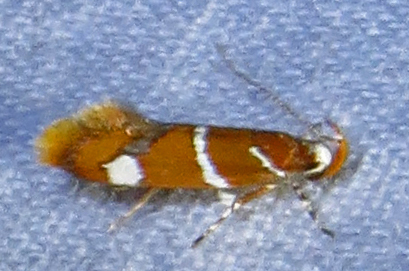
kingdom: Animalia
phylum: Arthropoda
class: Insecta
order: Lepidoptera
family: Oecophoridae
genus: Promalactis
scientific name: Promalactis suzukiella
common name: Moth
